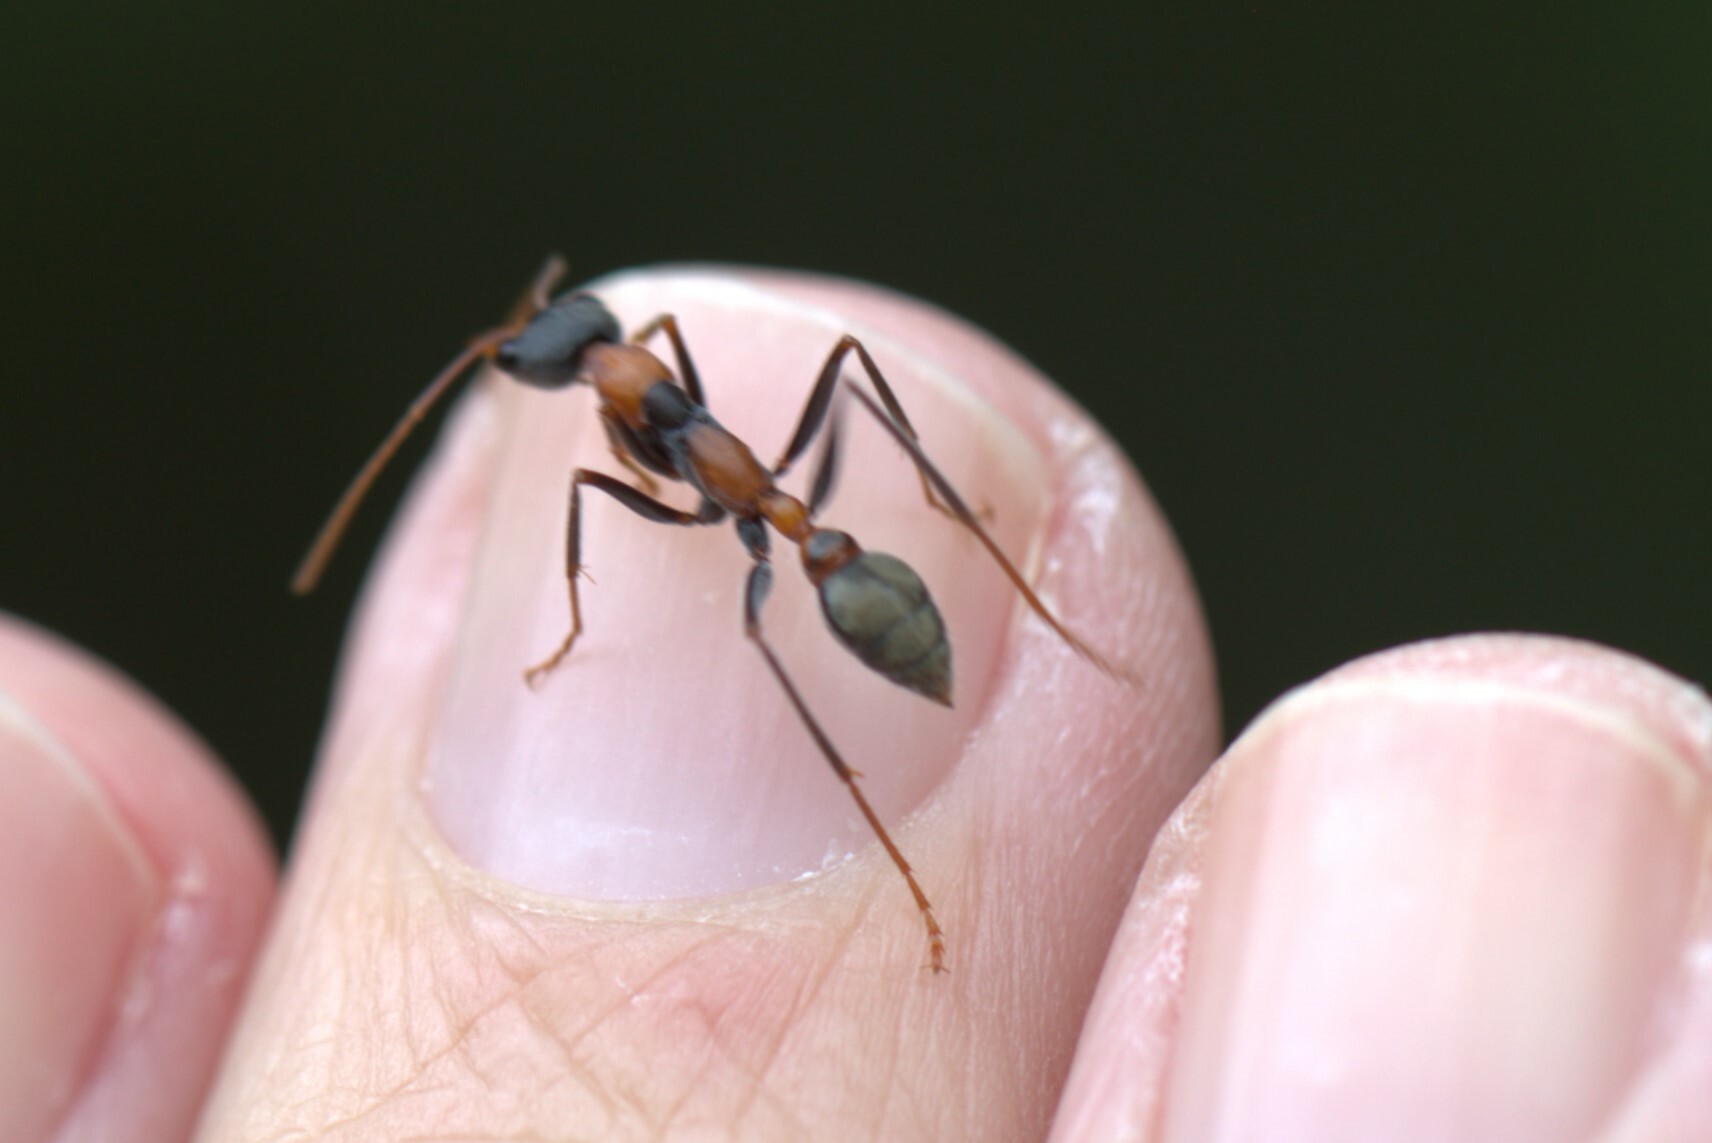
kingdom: Animalia
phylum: Arthropoda
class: Insecta
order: Hymenoptera
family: Formicidae
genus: Myrmecia
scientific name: Myrmecia nigrocincta
